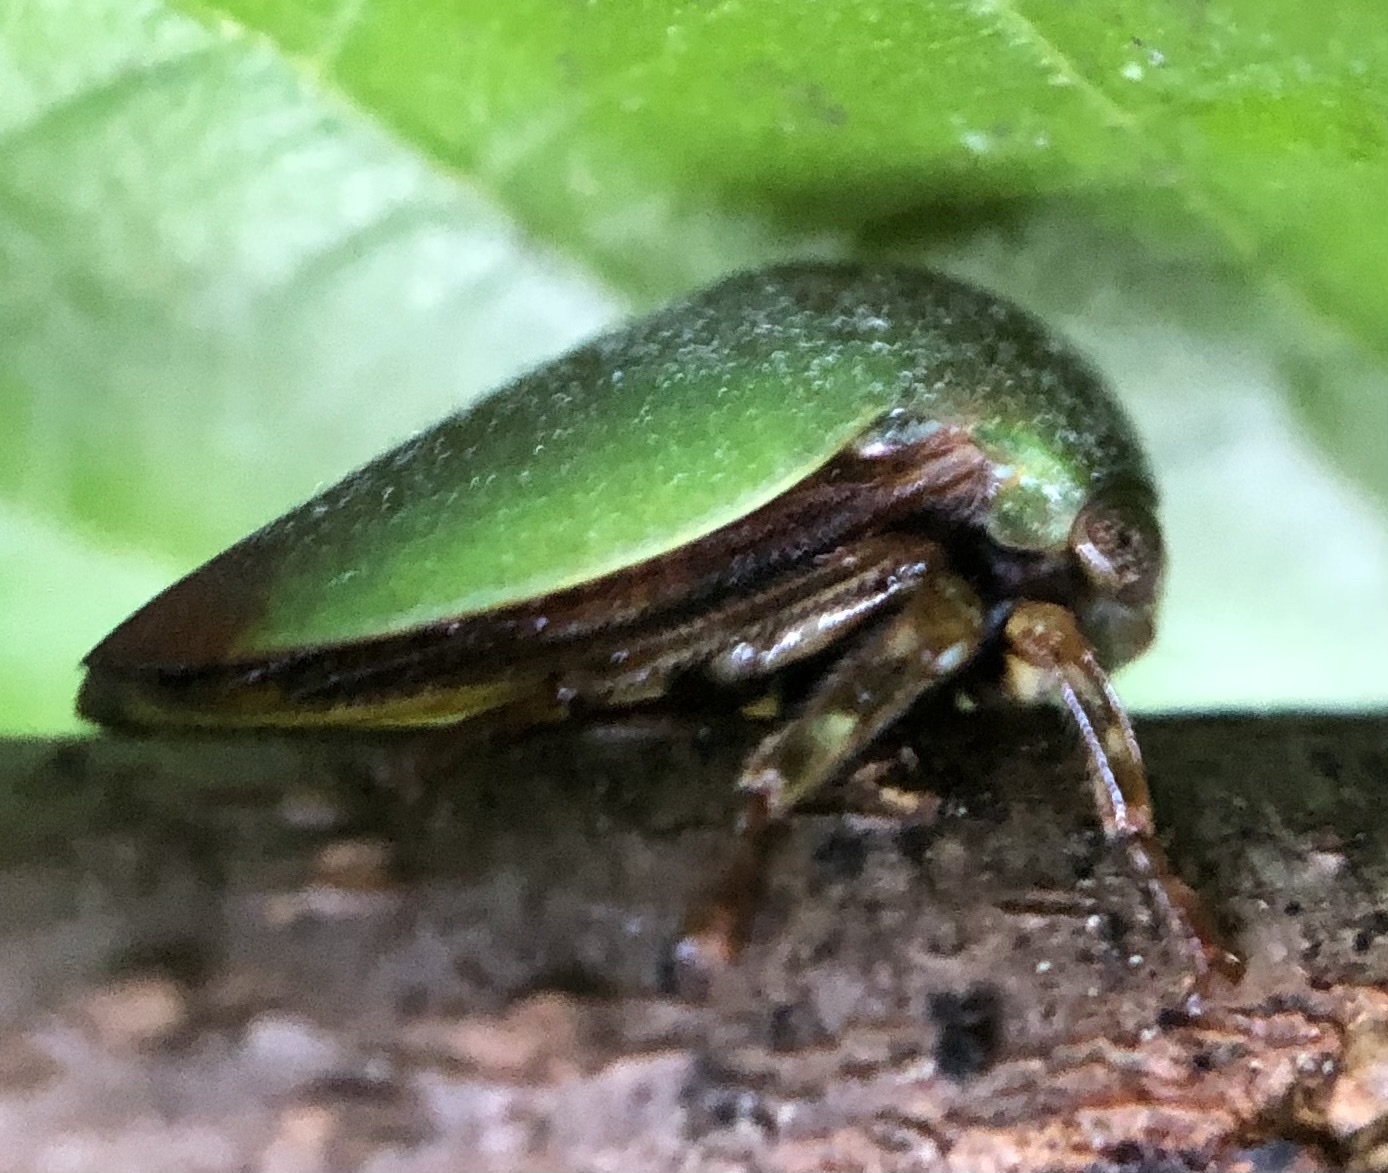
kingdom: Animalia
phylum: Arthropoda
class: Insecta
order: Hemiptera
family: Membracidae
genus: Hebetica
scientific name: Hebetica
